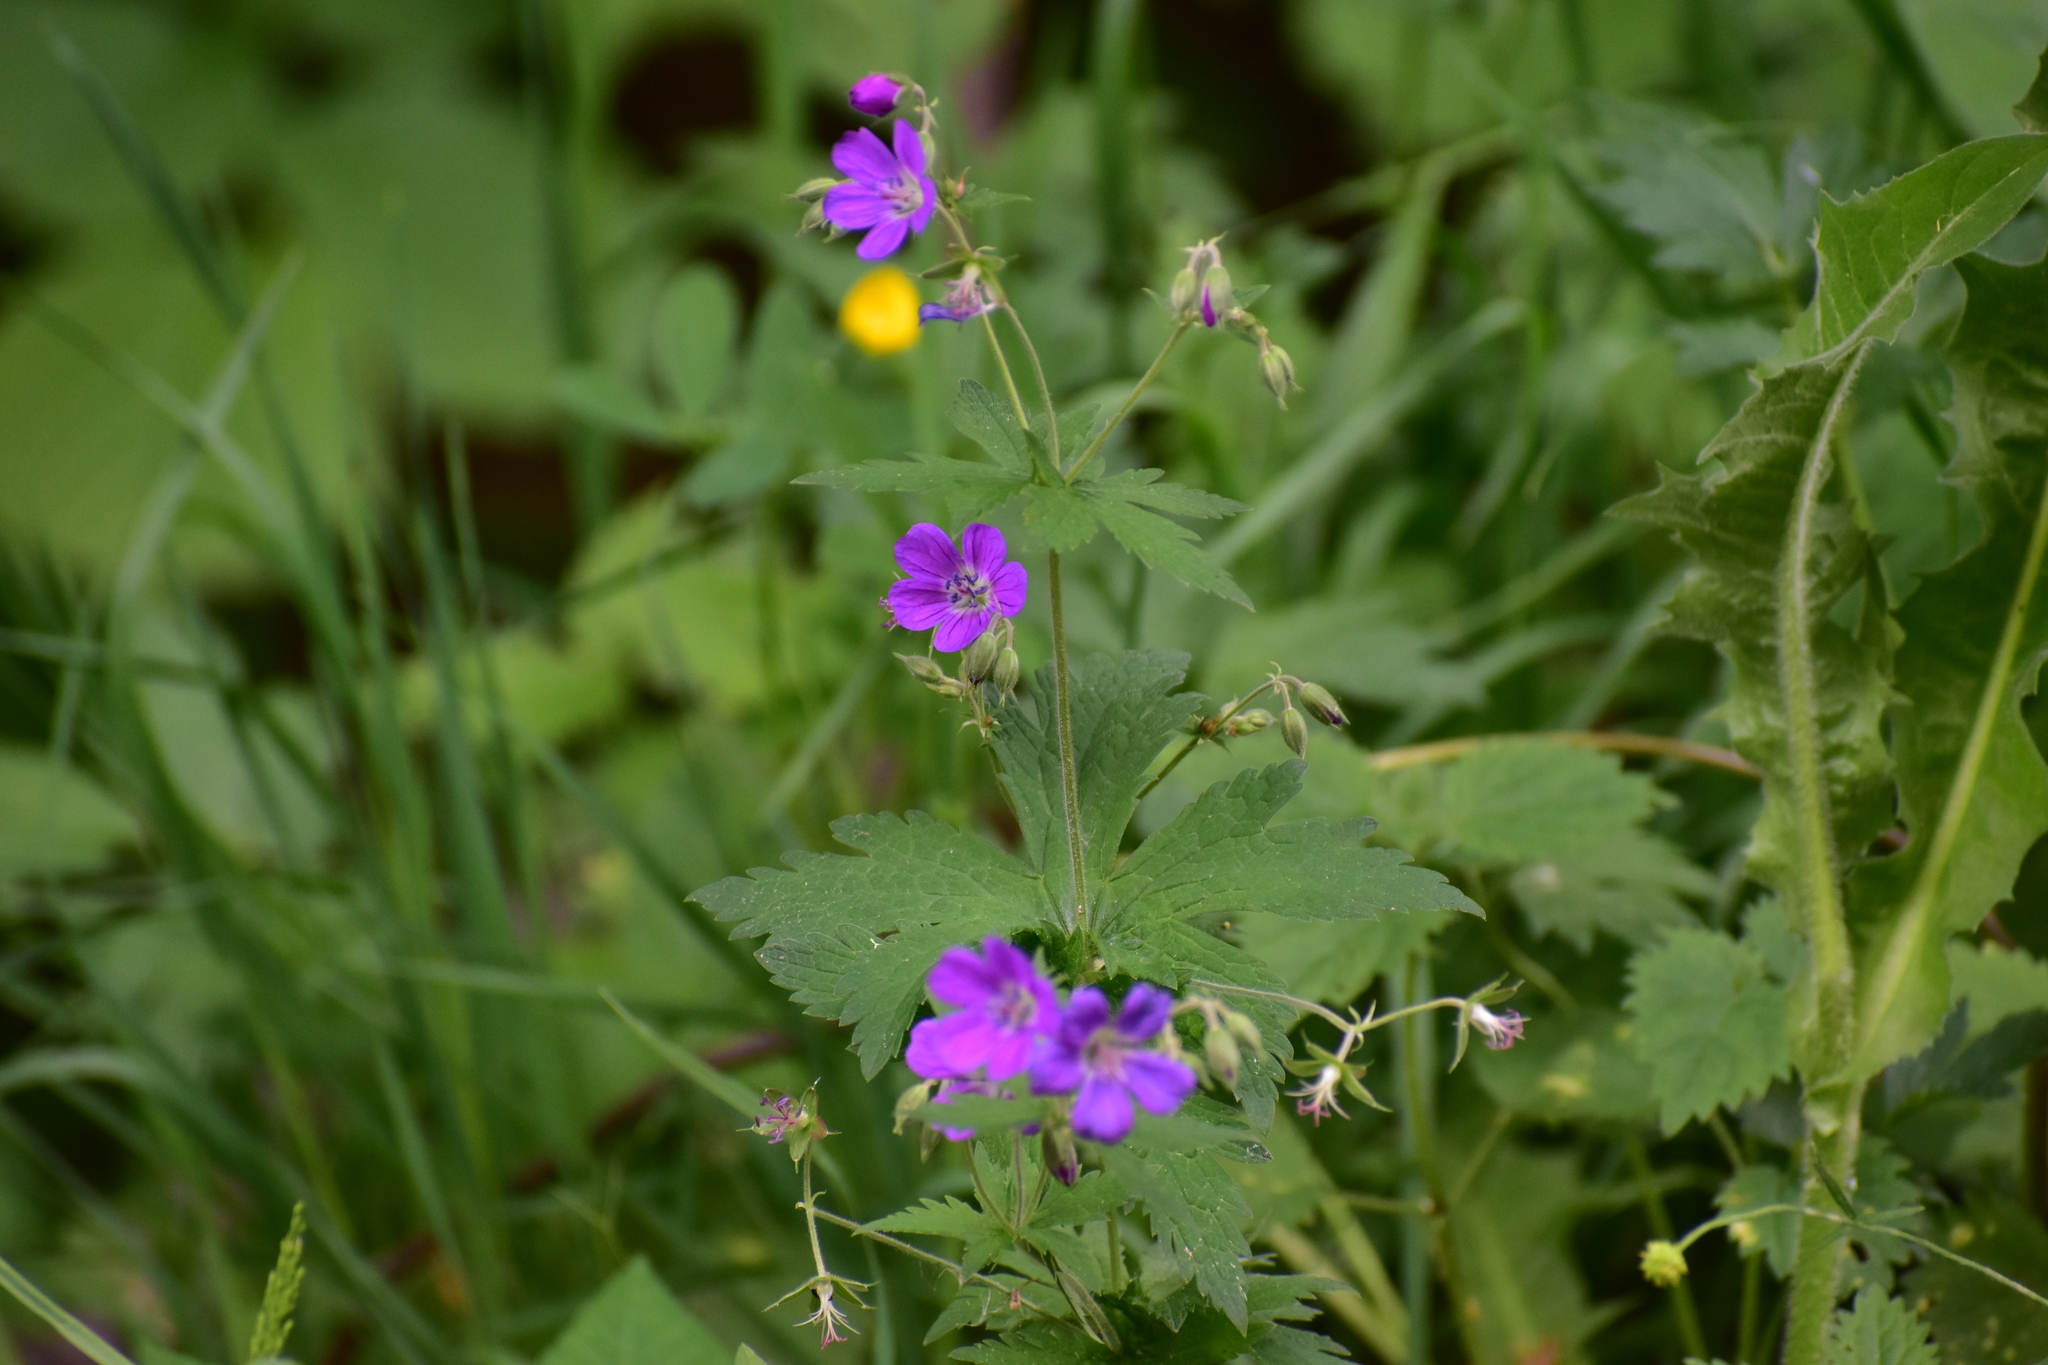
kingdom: Plantae
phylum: Tracheophyta
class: Magnoliopsida
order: Geraniales
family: Geraniaceae
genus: Geranium
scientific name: Geranium sylvaticum
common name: Wood crane's-bill
